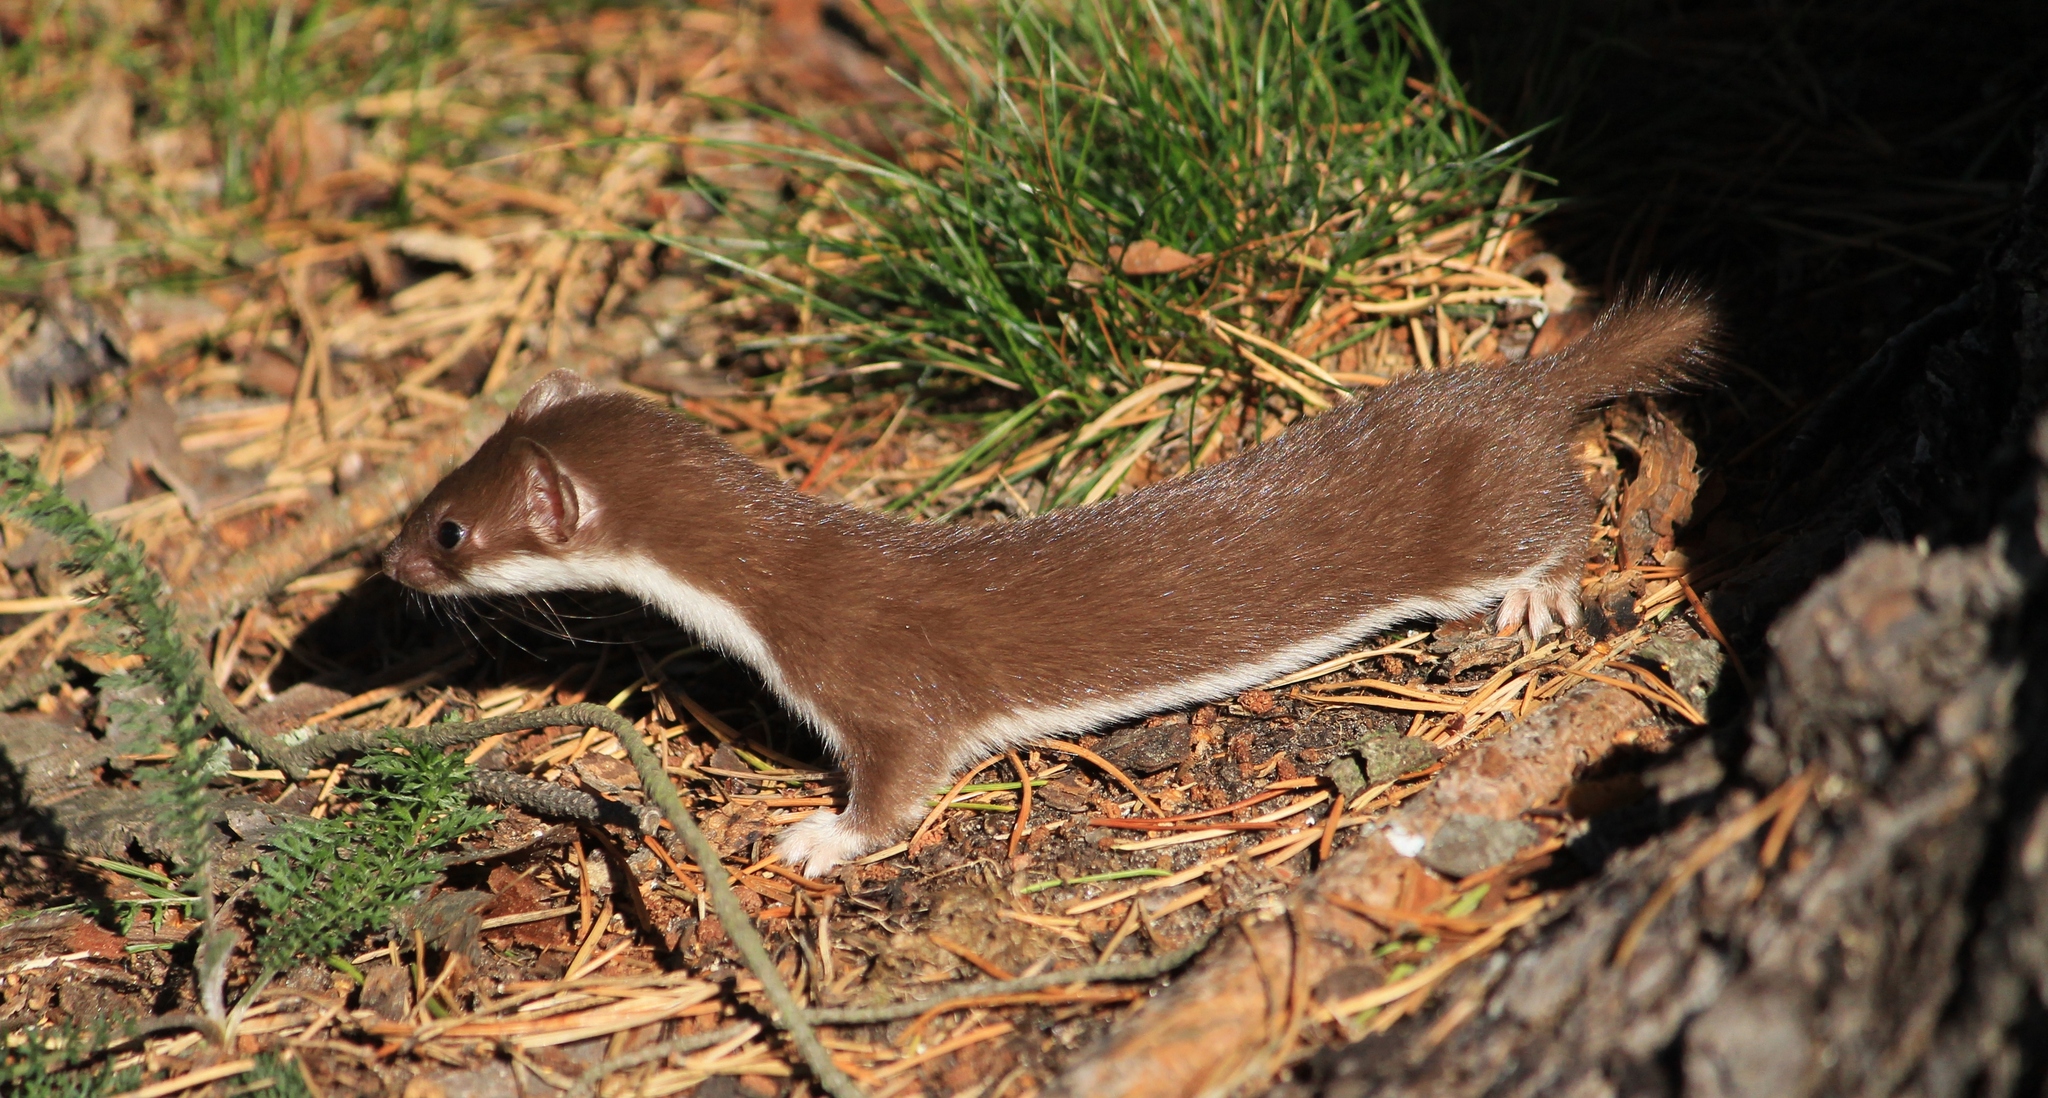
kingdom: Animalia
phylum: Chordata
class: Mammalia
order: Carnivora
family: Mustelidae
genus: Mustela
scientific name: Mustela nivalis
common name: Least weasel
